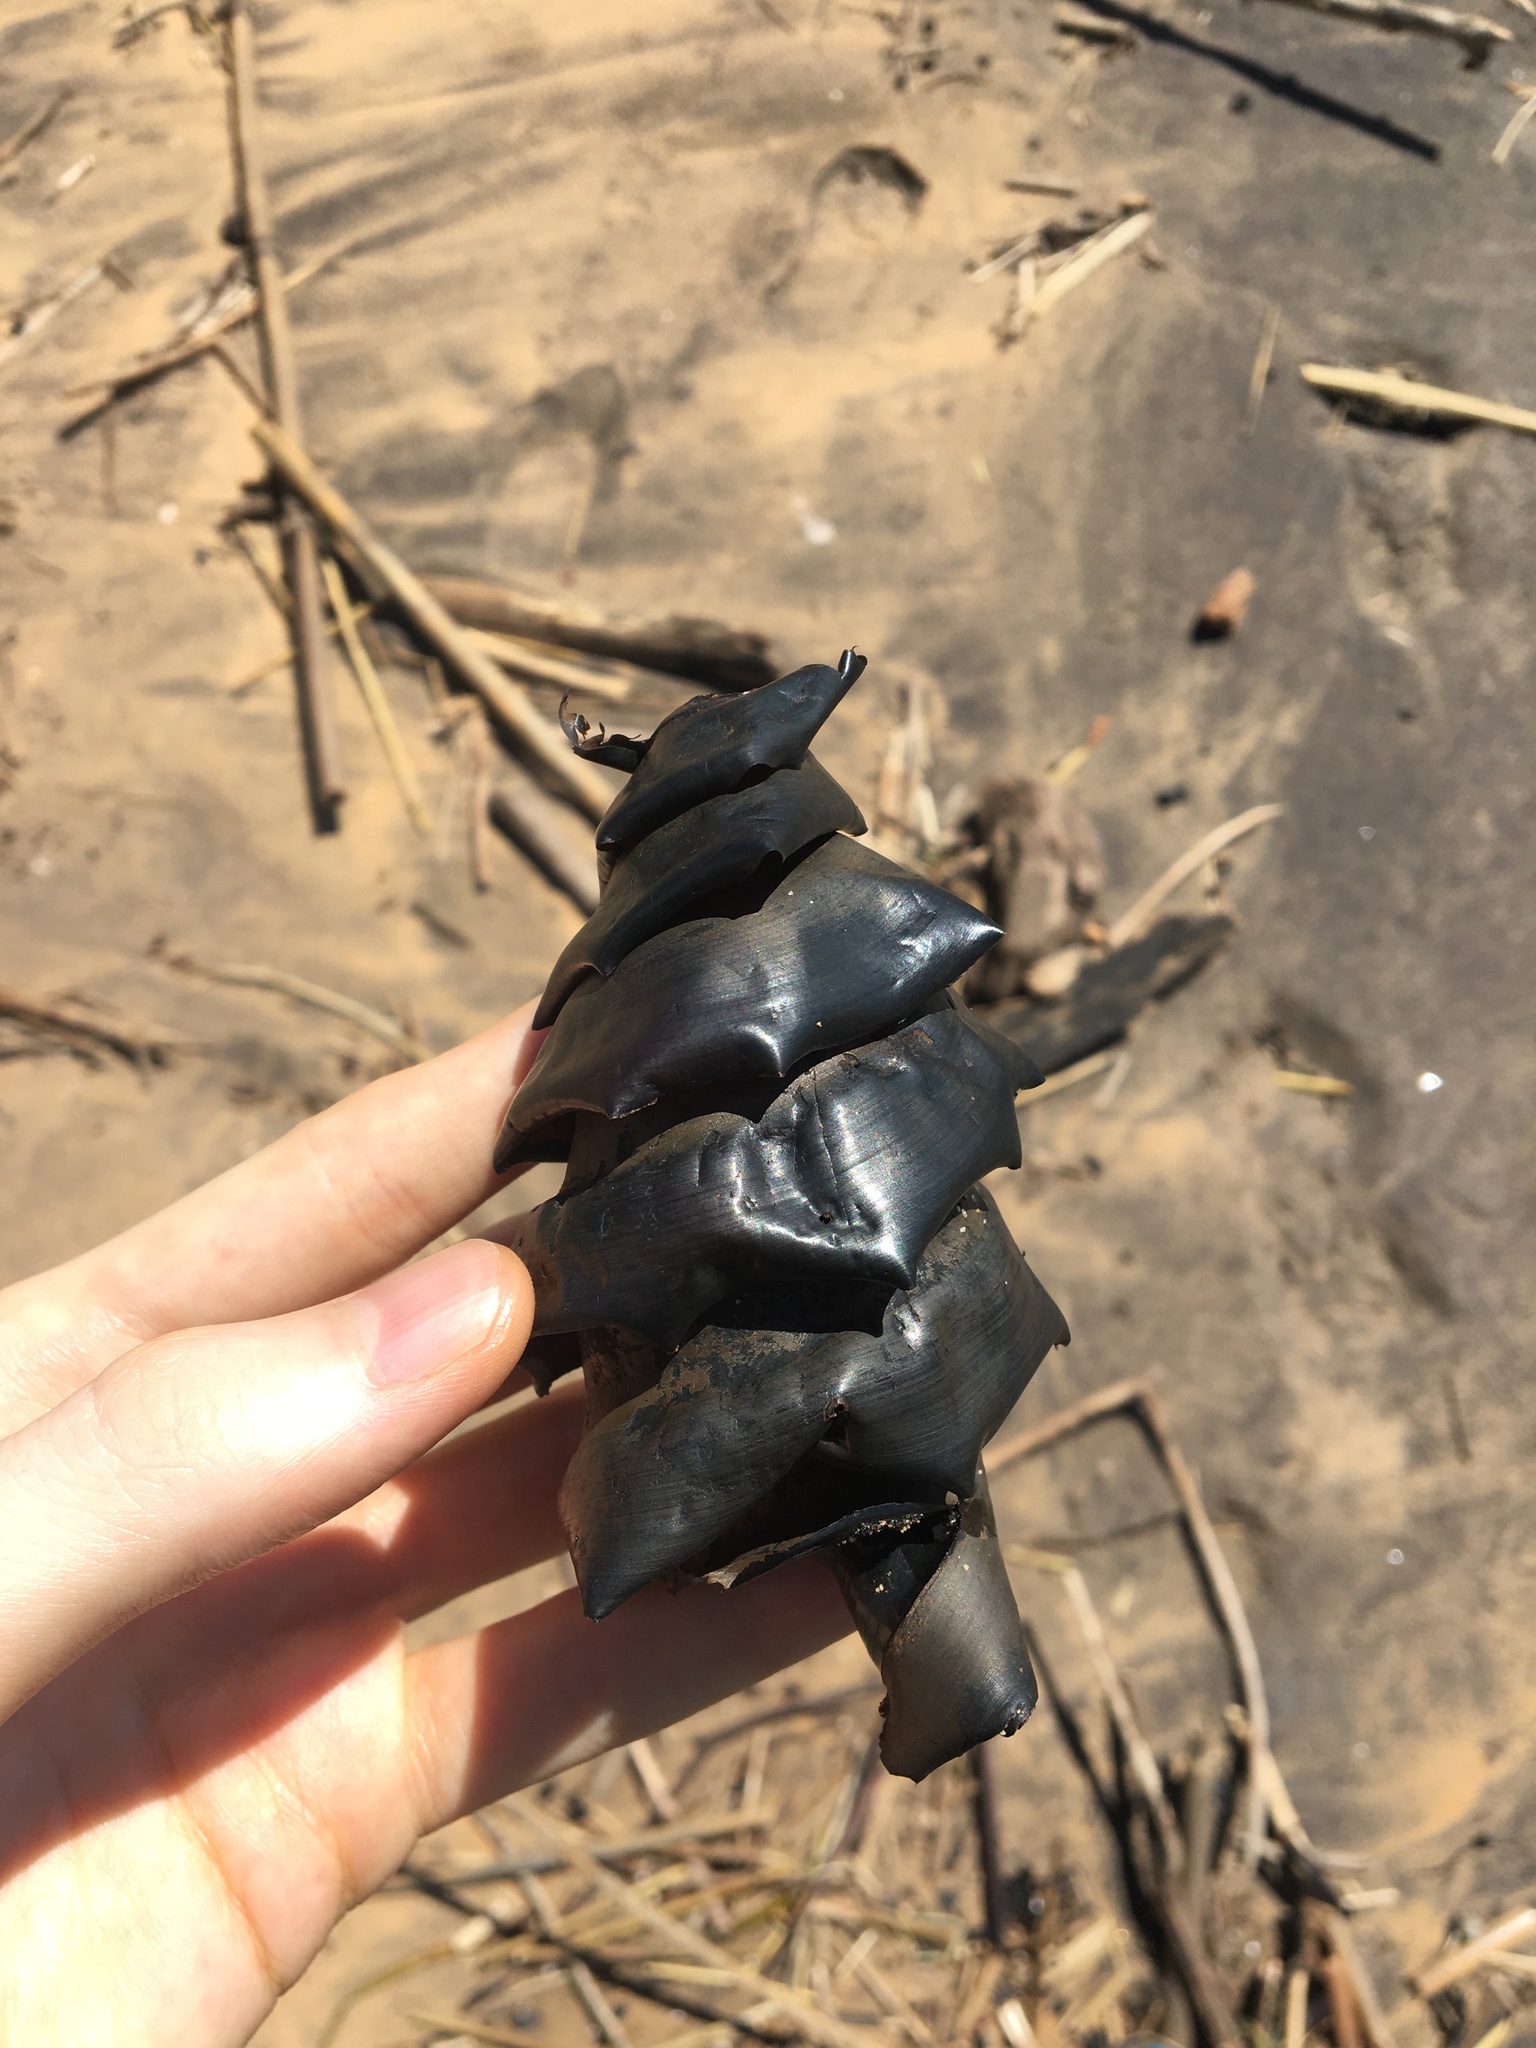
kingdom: Animalia
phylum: Chordata
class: Elasmobranchii
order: Heterodontiformes
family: Heterodontidae
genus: Heterodontus
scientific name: Heterodontus portusjacksoni
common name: Port jackson shark
